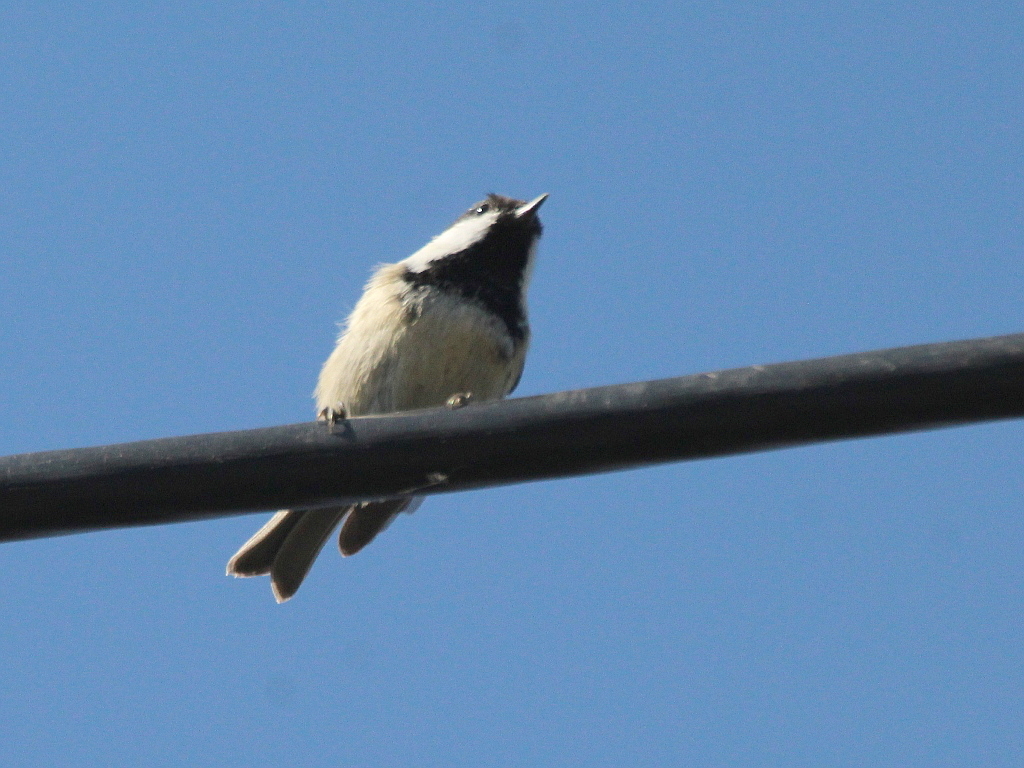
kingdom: Animalia
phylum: Chordata
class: Aves
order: Passeriformes
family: Paridae
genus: Periparus
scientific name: Periparus ater
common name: Coal tit
